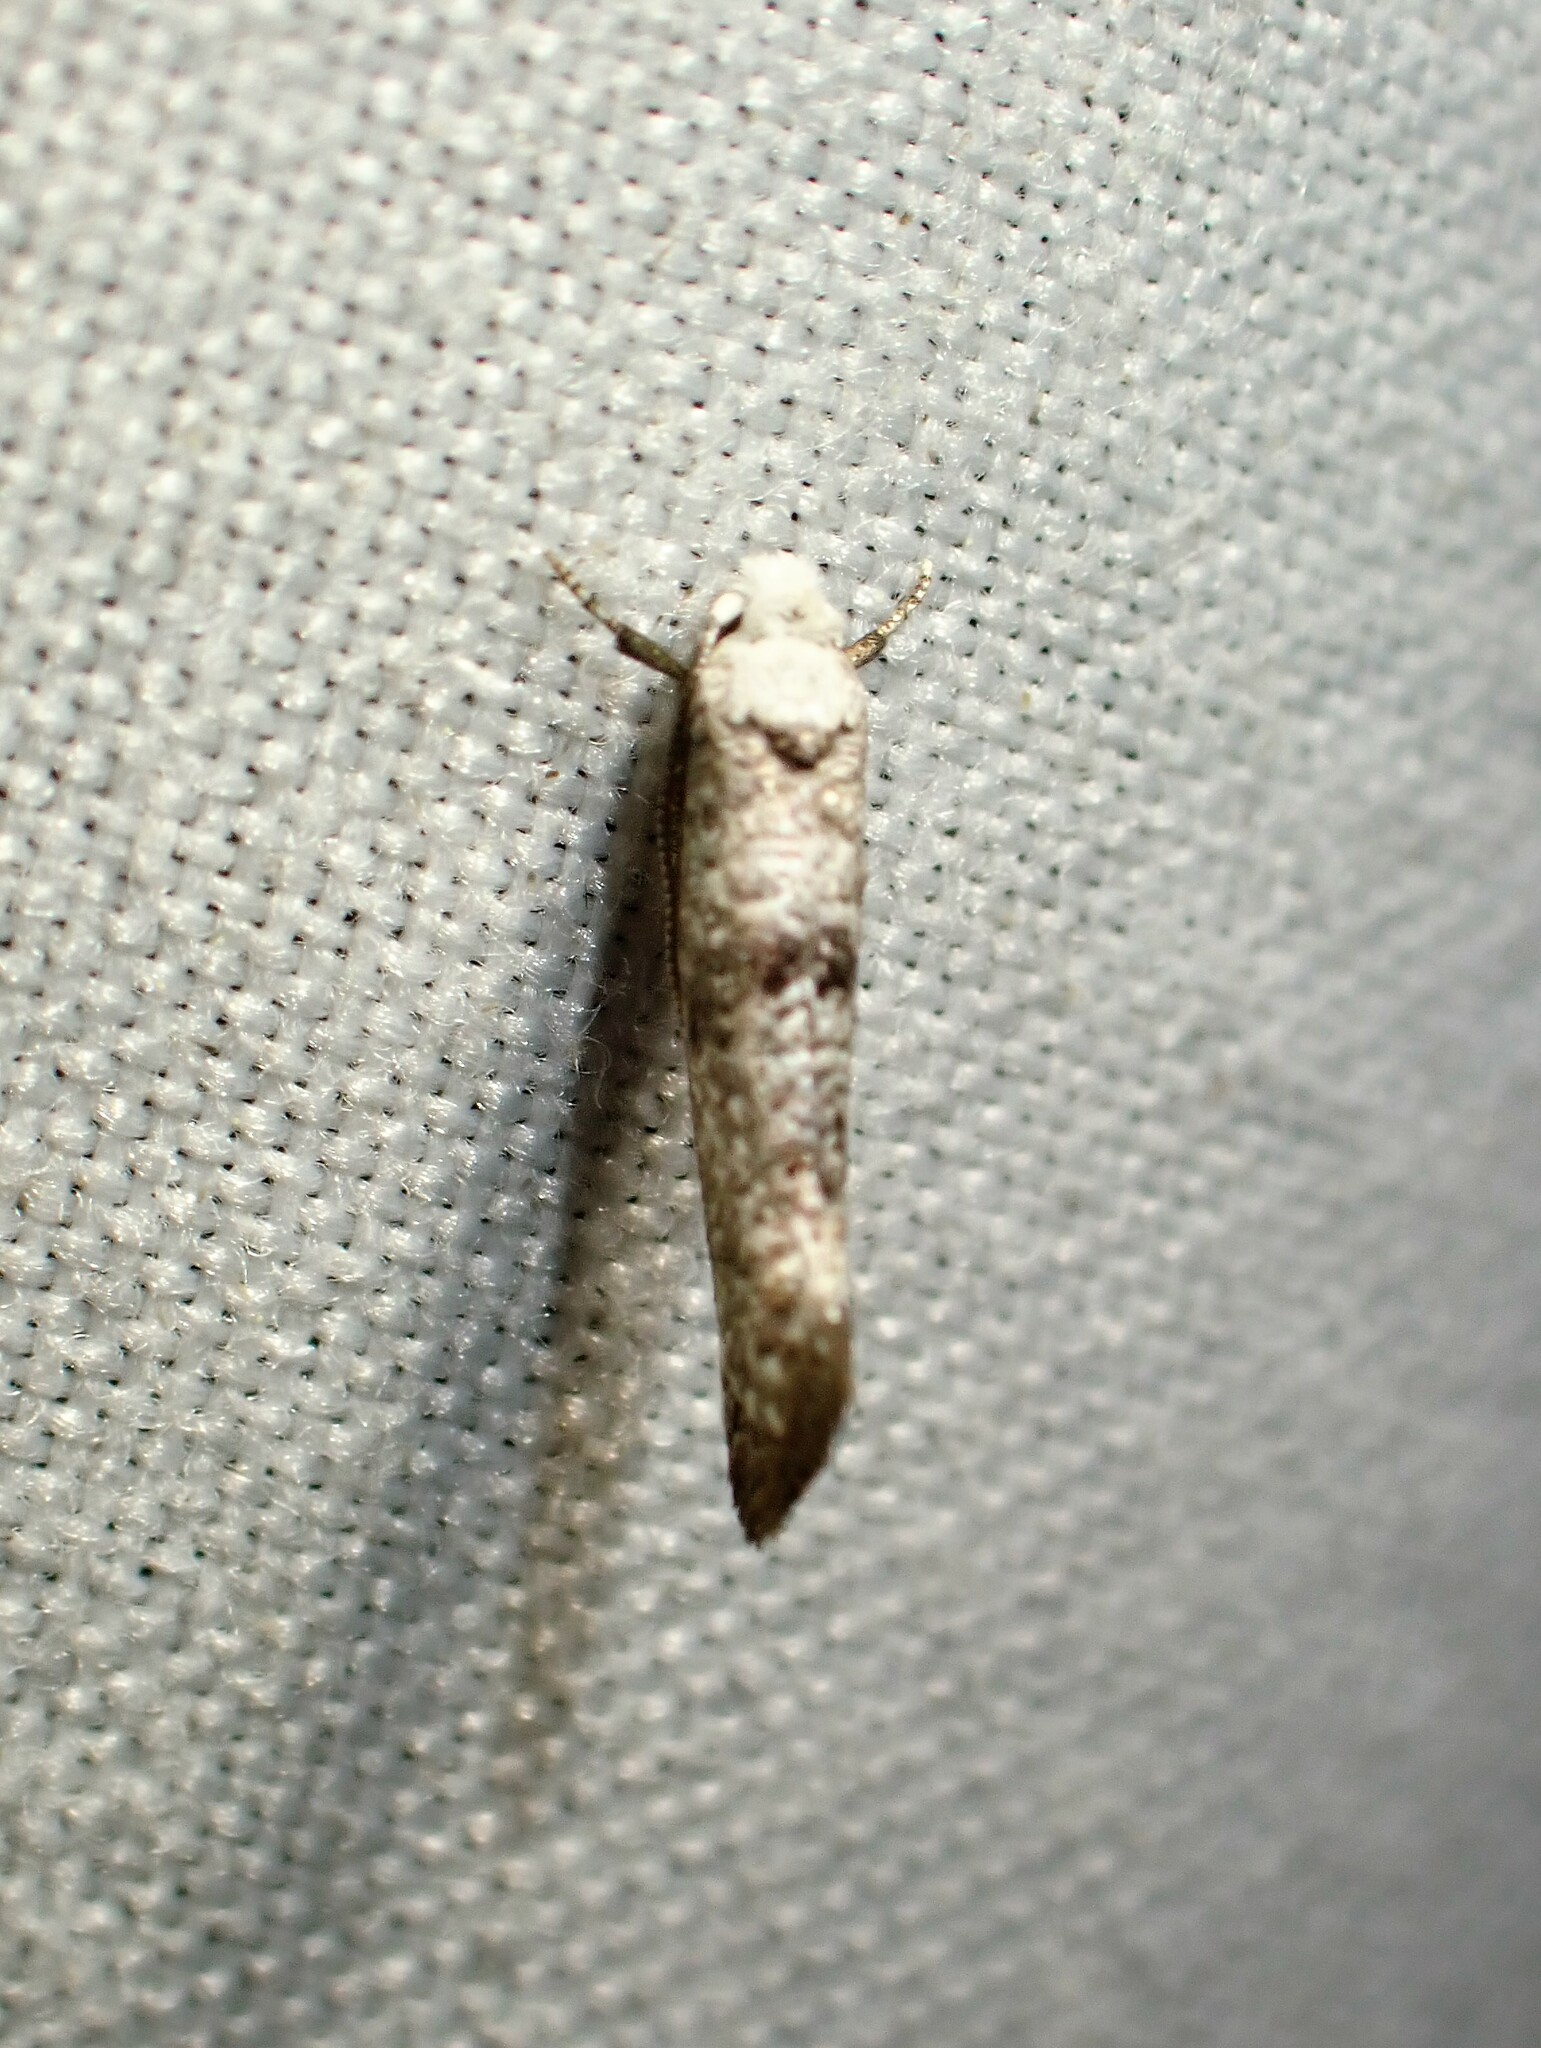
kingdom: Animalia
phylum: Arthropoda
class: Insecta
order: Lepidoptera
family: Yponomeutidae
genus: Swammerdamia
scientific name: Swammerdamia
